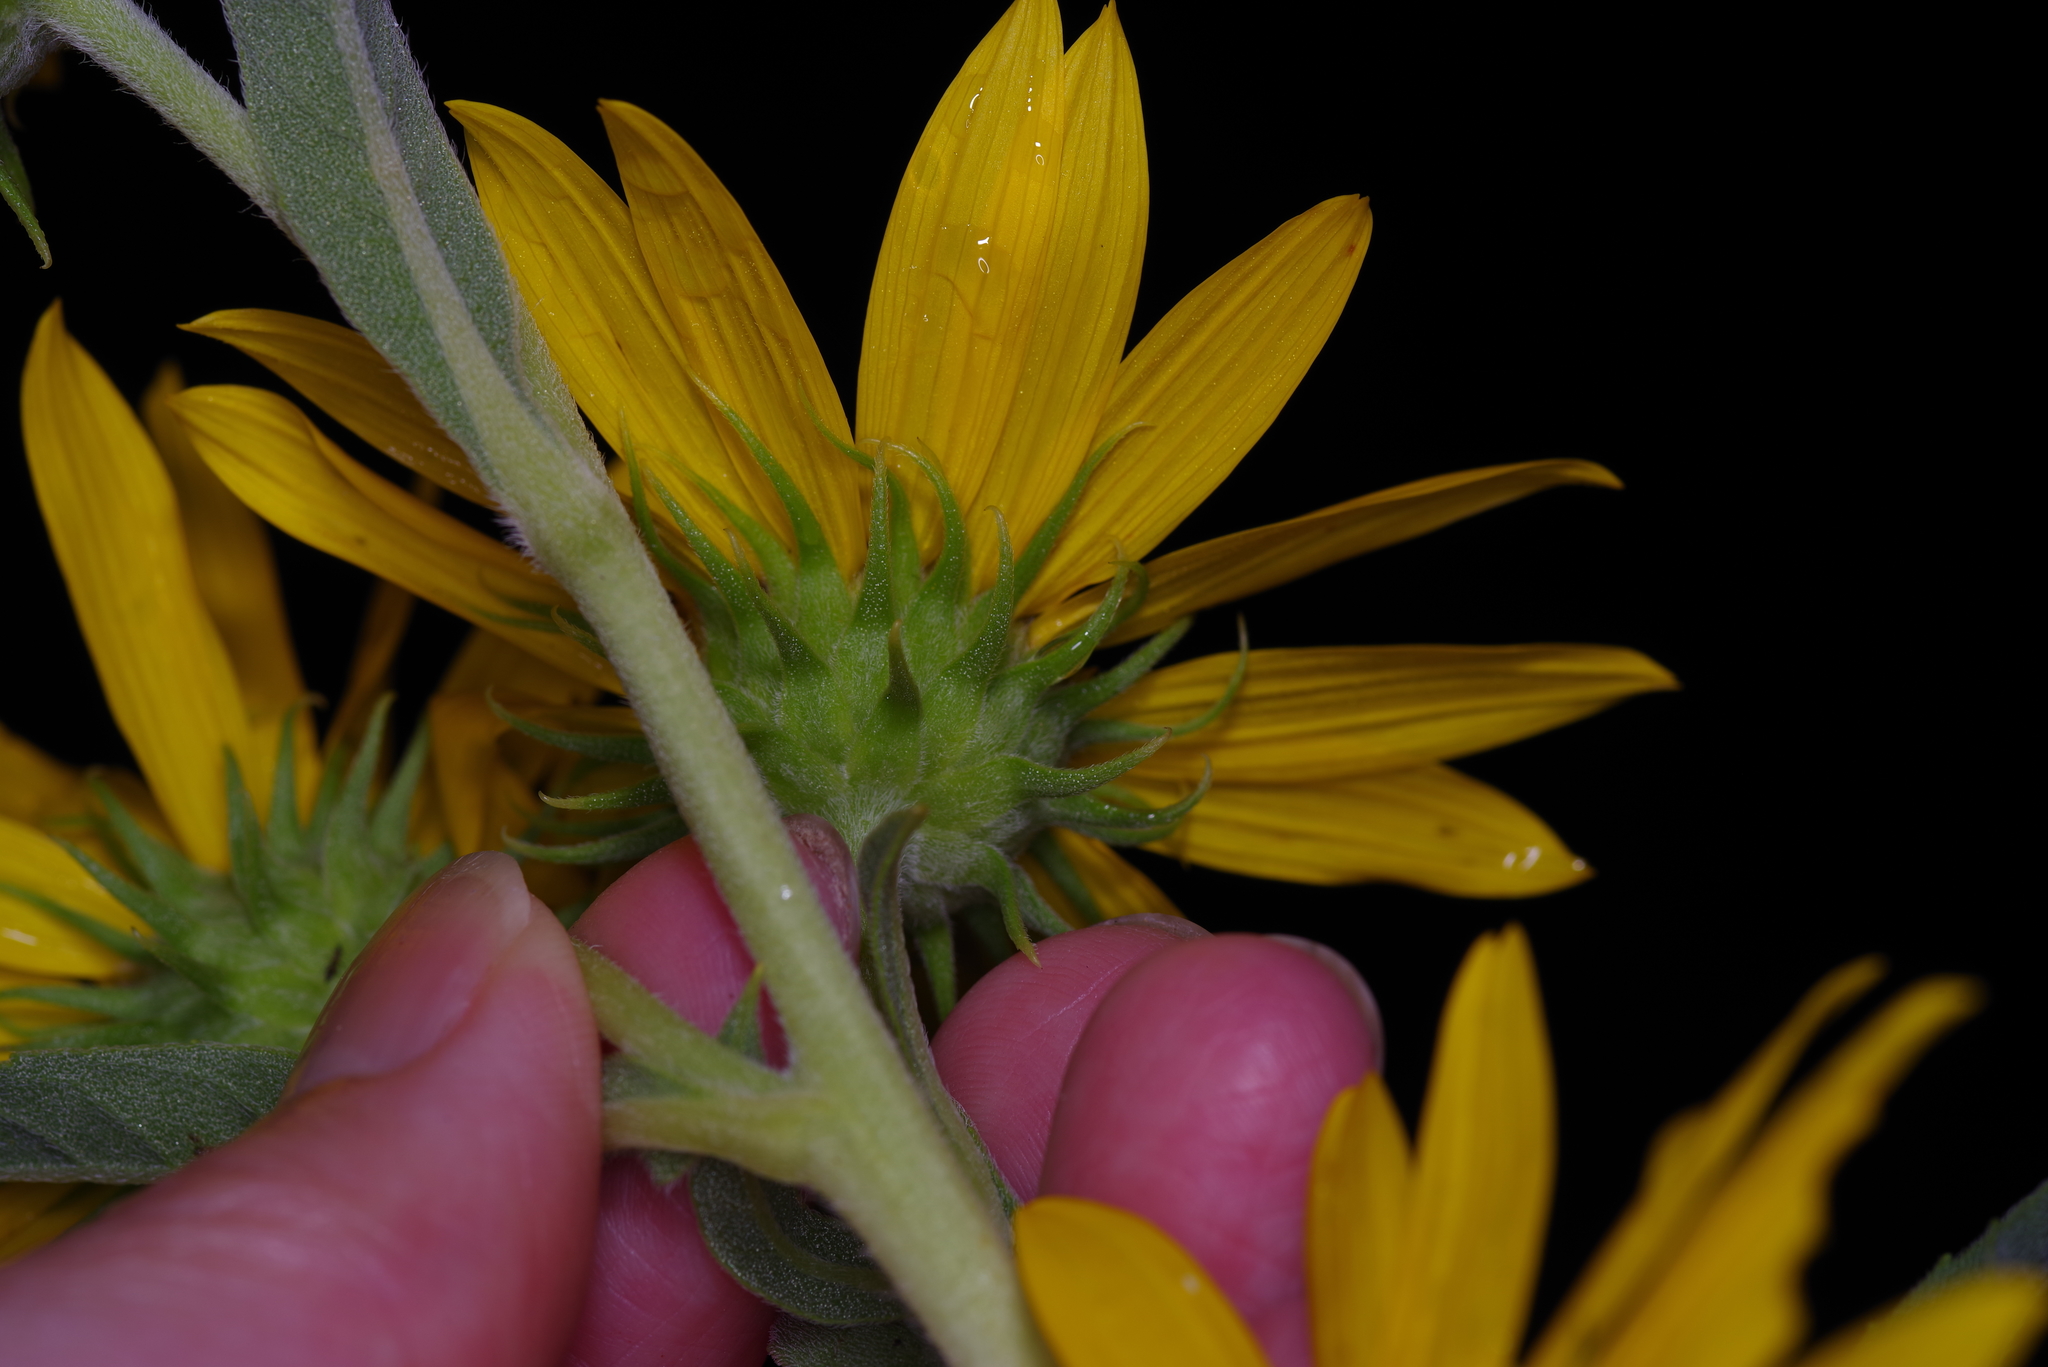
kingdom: Plantae
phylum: Tracheophyta
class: Magnoliopsida
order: Asterales
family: Asteraceae
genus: Helianthus
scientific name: Helianthus maximiliani
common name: Maximilian's sunflower
